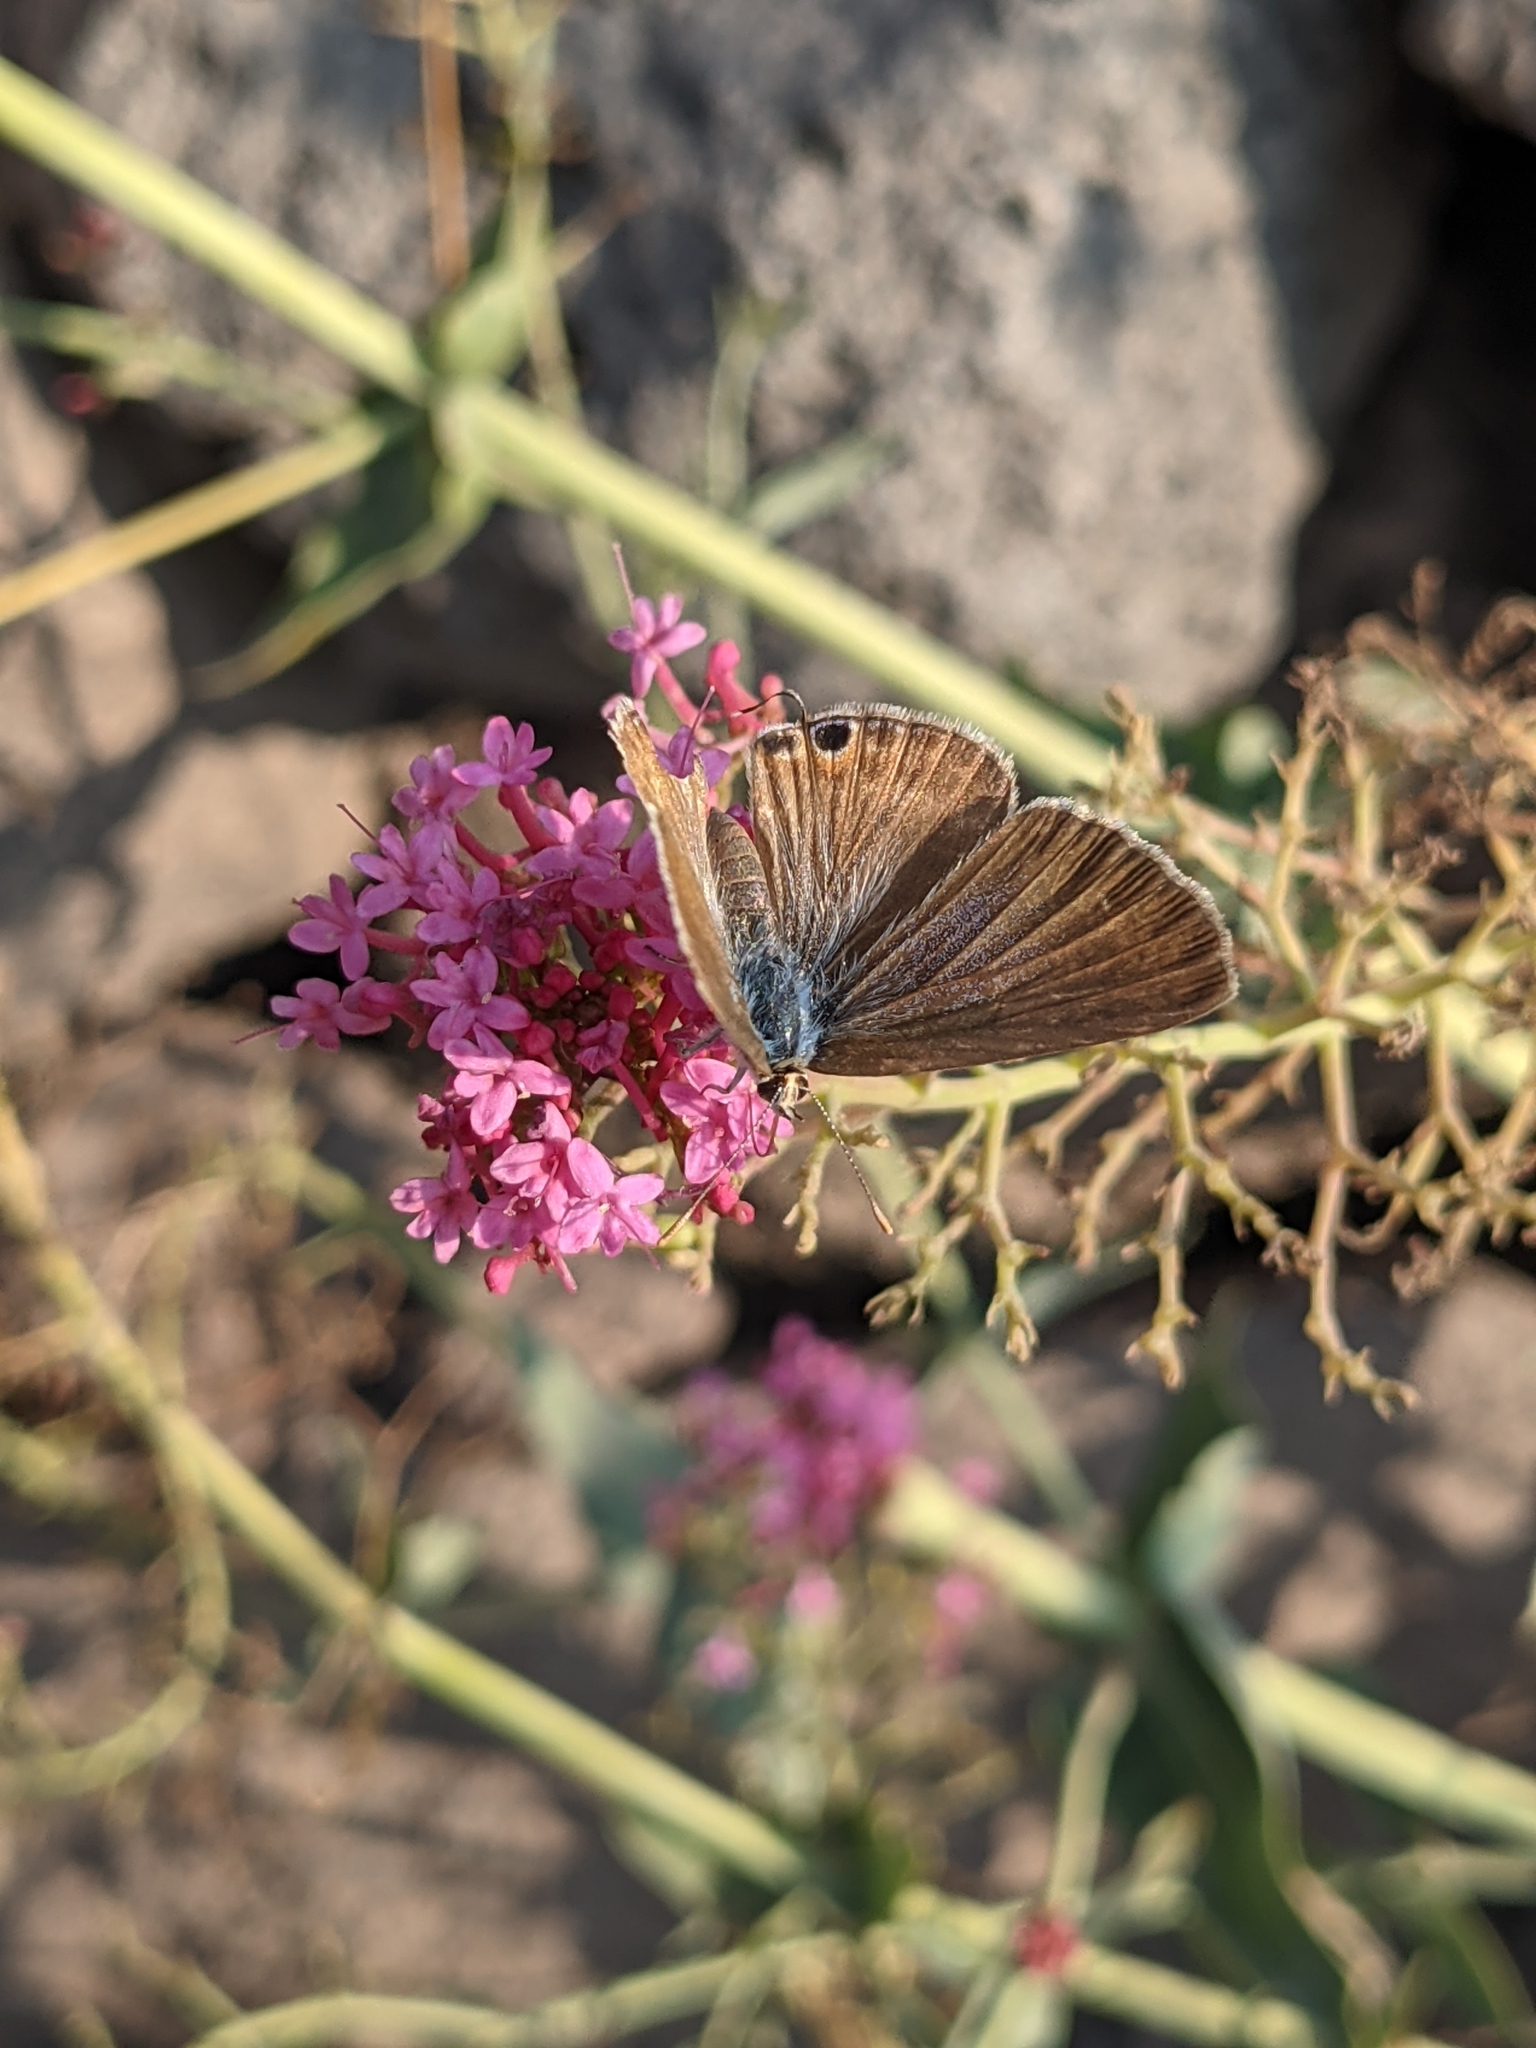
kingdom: Animalia
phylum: Arthropoda
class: Insecta
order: Lepidoptera
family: Lycaenidae
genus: Lampides
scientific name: Lampides boeticus
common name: Long-tailed blue
